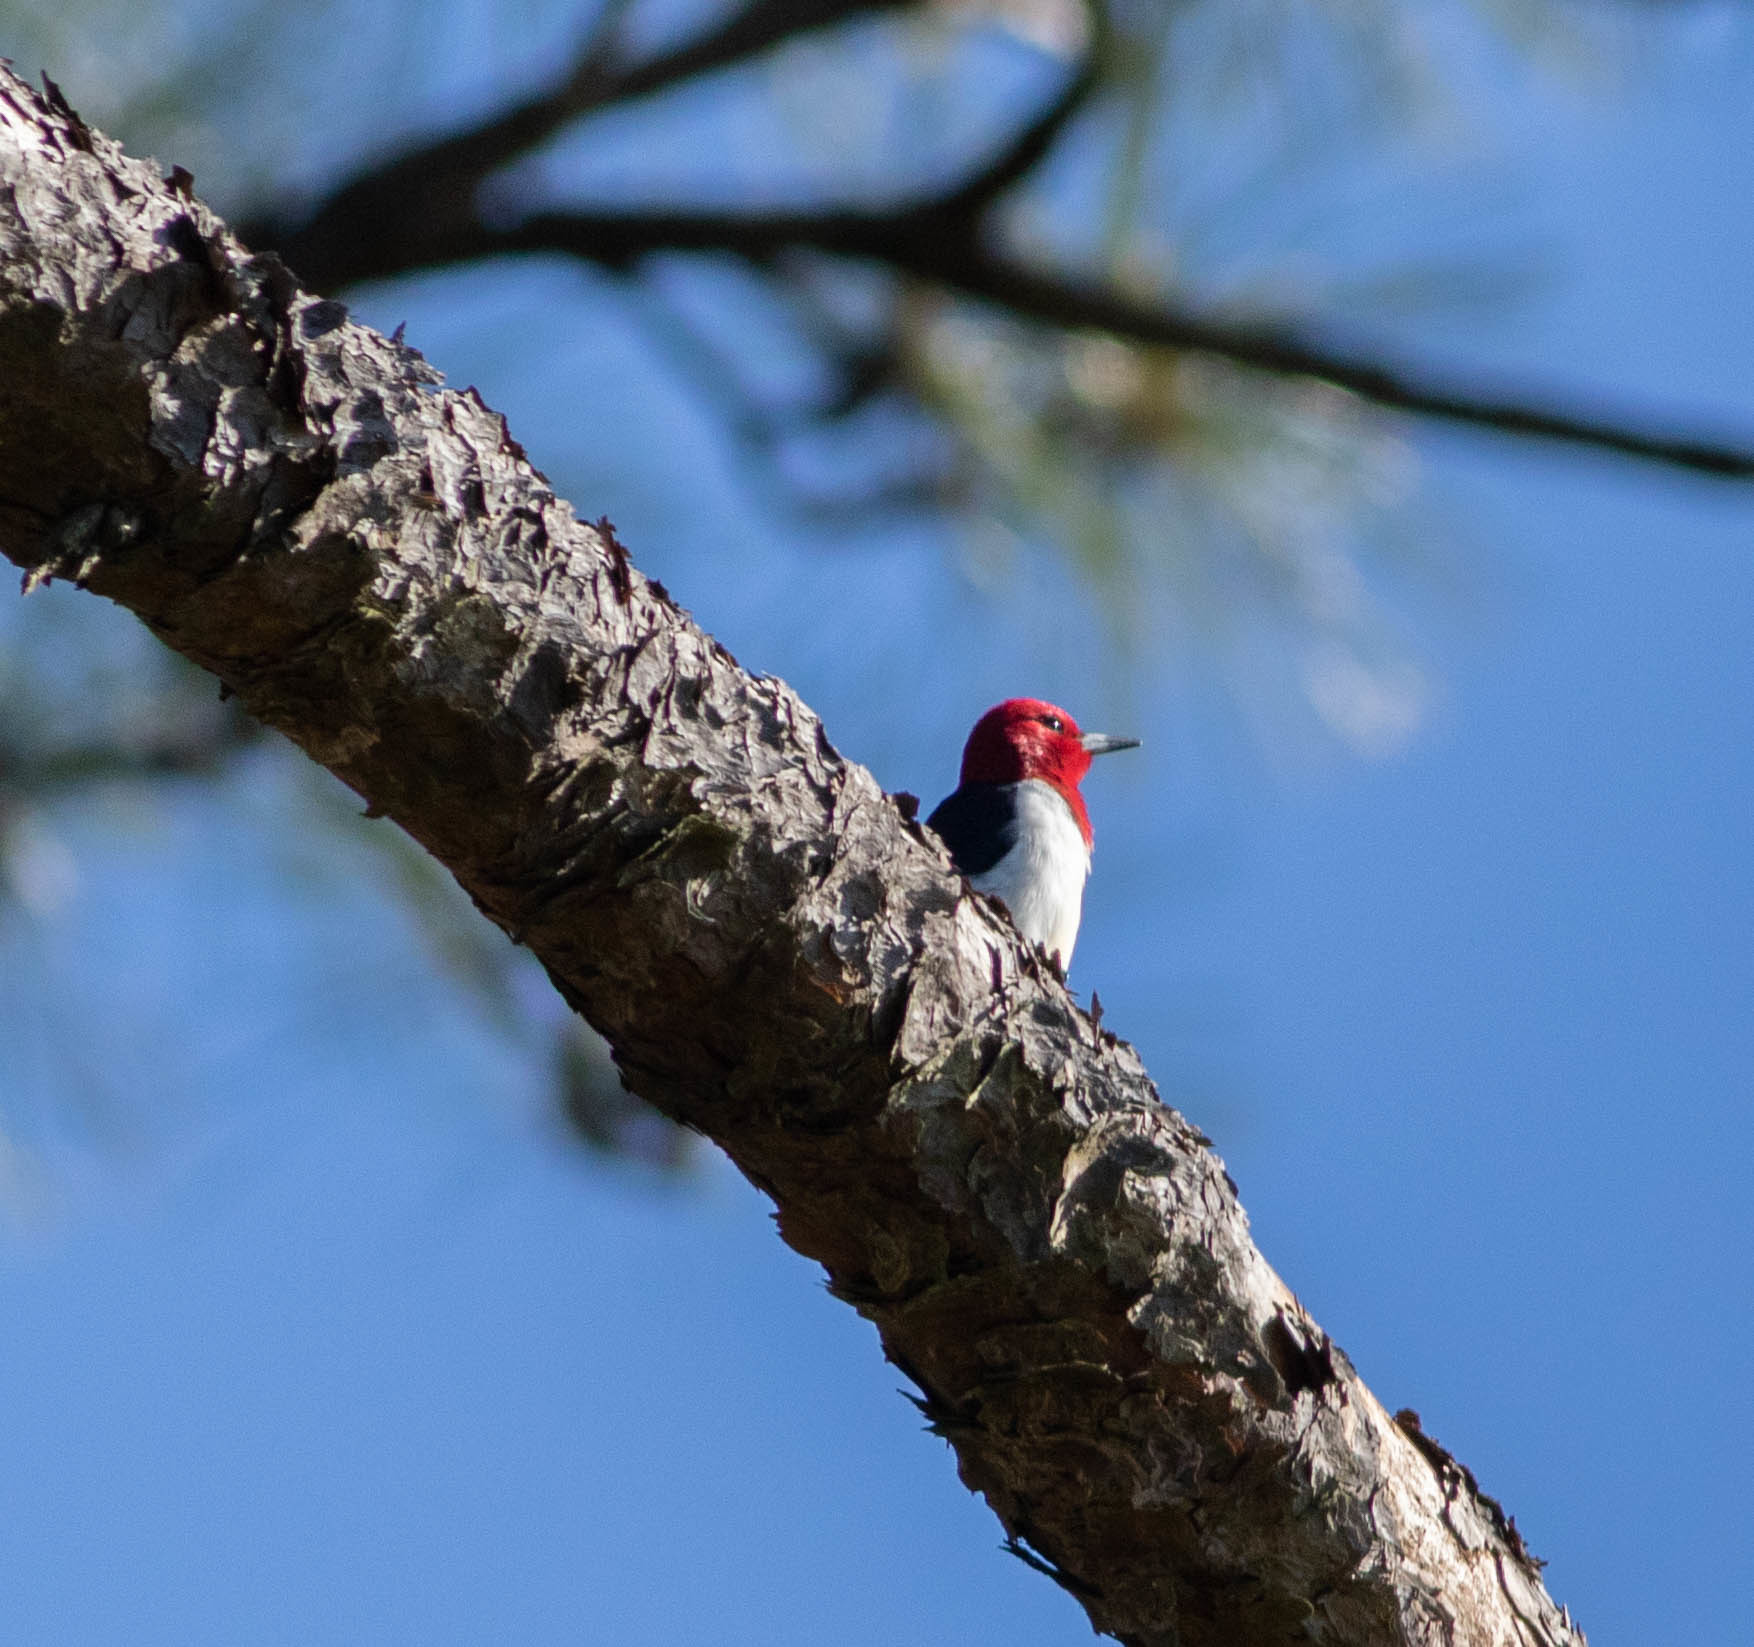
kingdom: Animalia
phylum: Chordata
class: Aves
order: Piciformes
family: Picidae
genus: Melanerpes
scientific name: Melanerpes erythrocephalus
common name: Red-headed woodpecker
